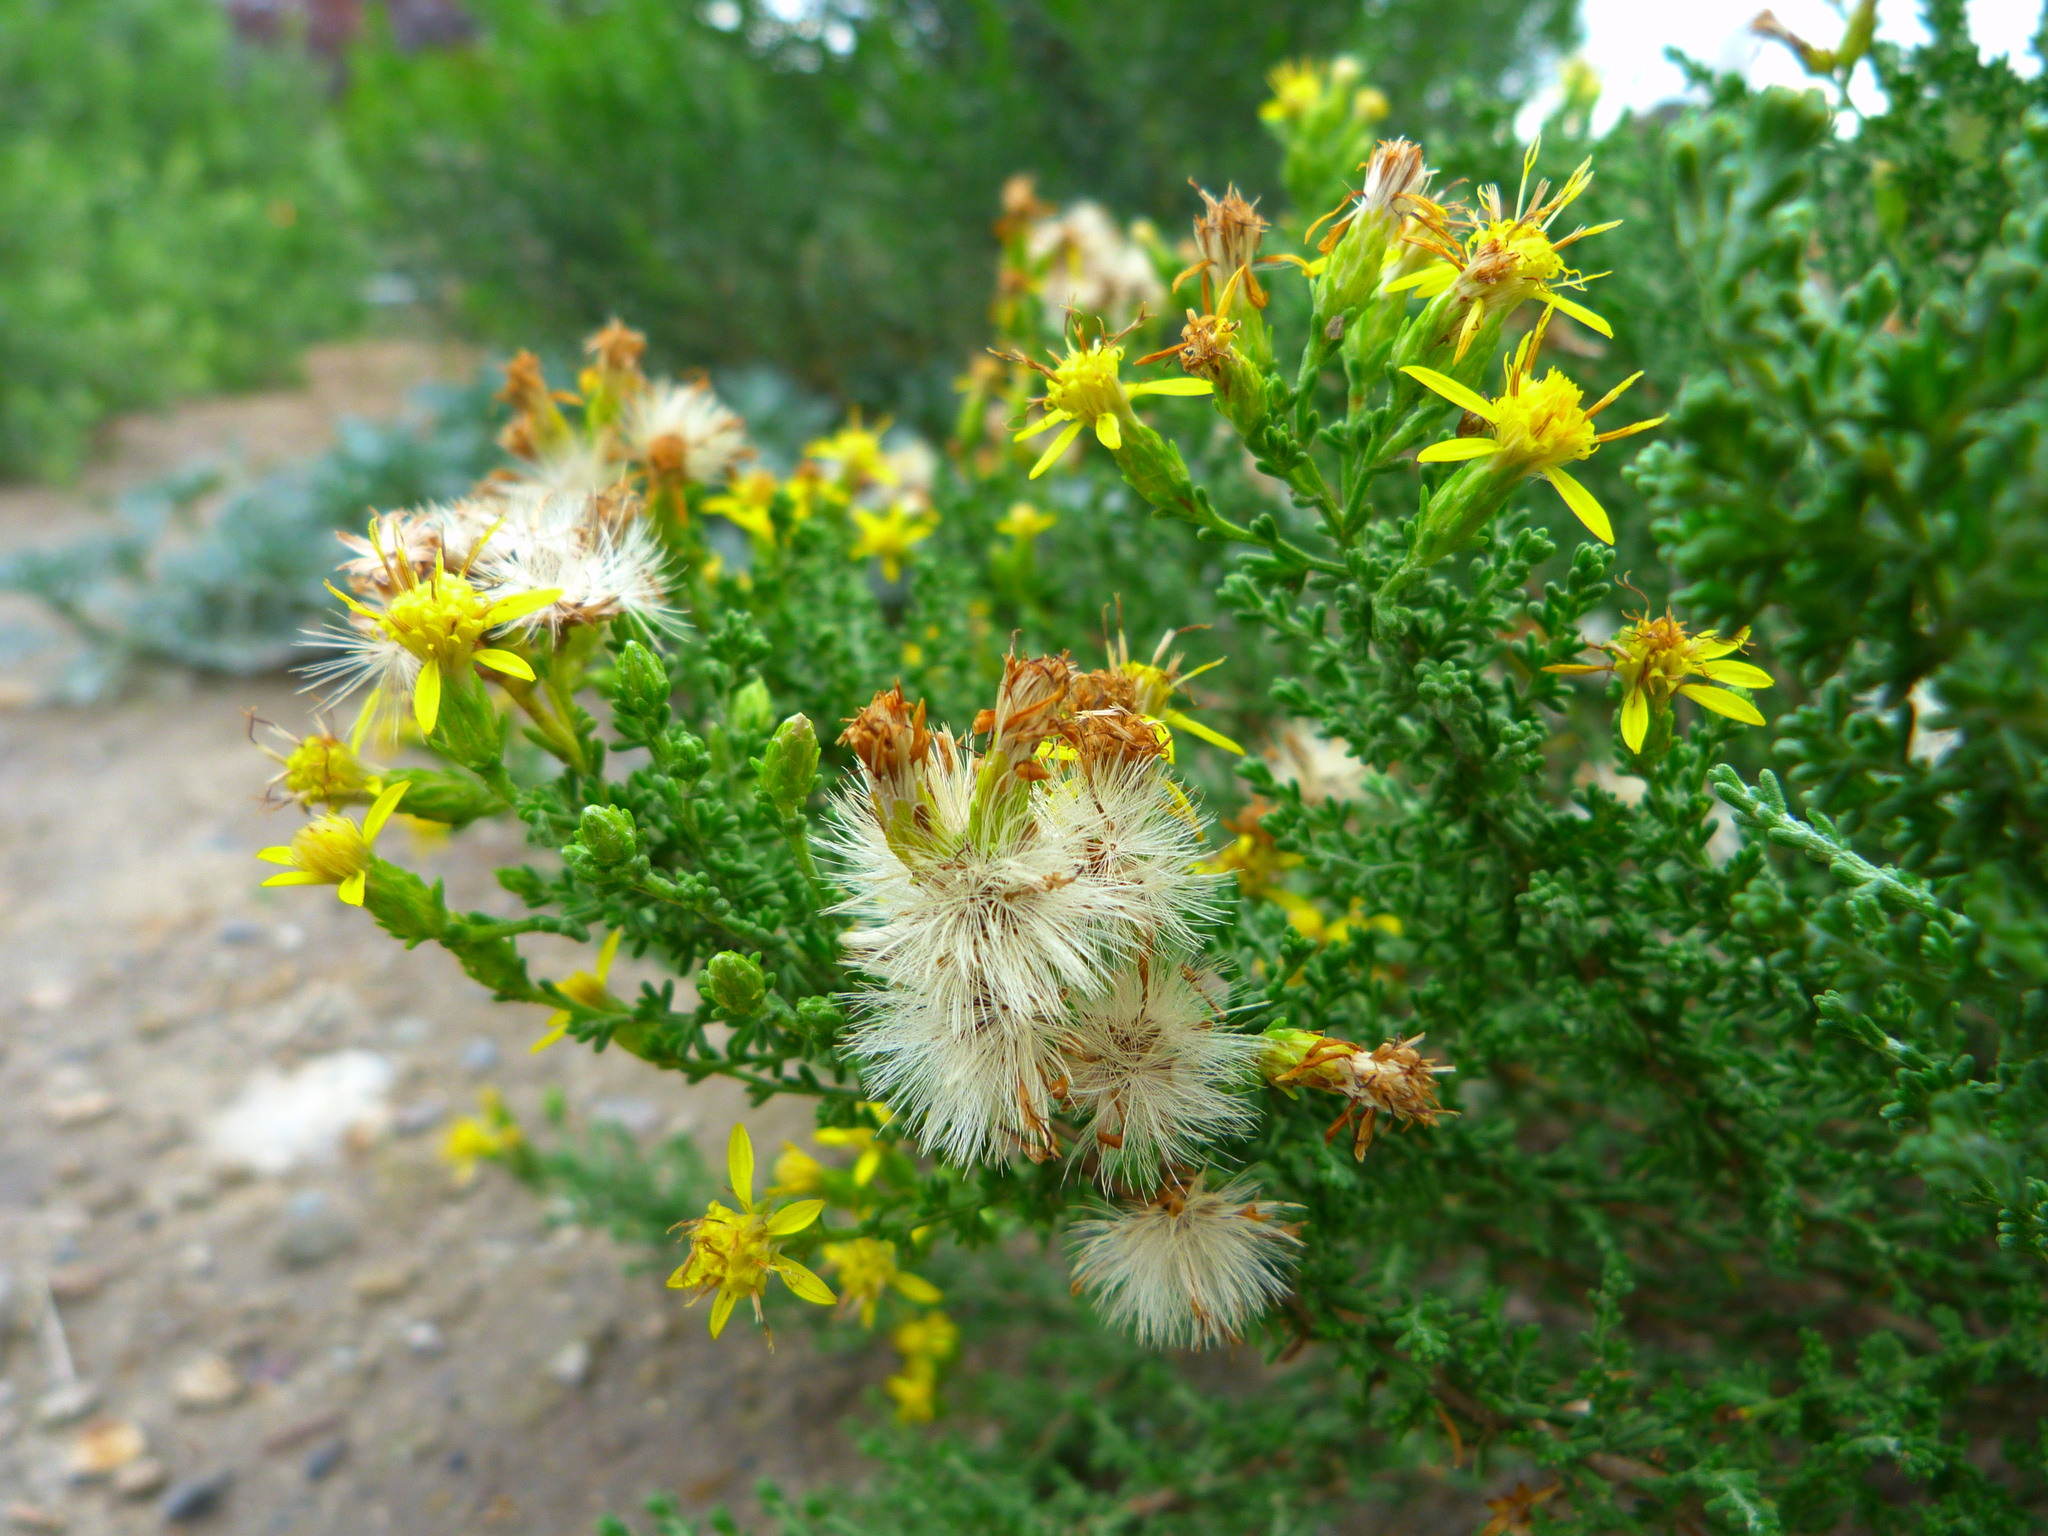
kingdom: Plantae
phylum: Tracheophyta
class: Magnoliopsida
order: Asterales
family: Asteraceae
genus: Ericameria
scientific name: Ericameria ericoides
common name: California goldenbush
